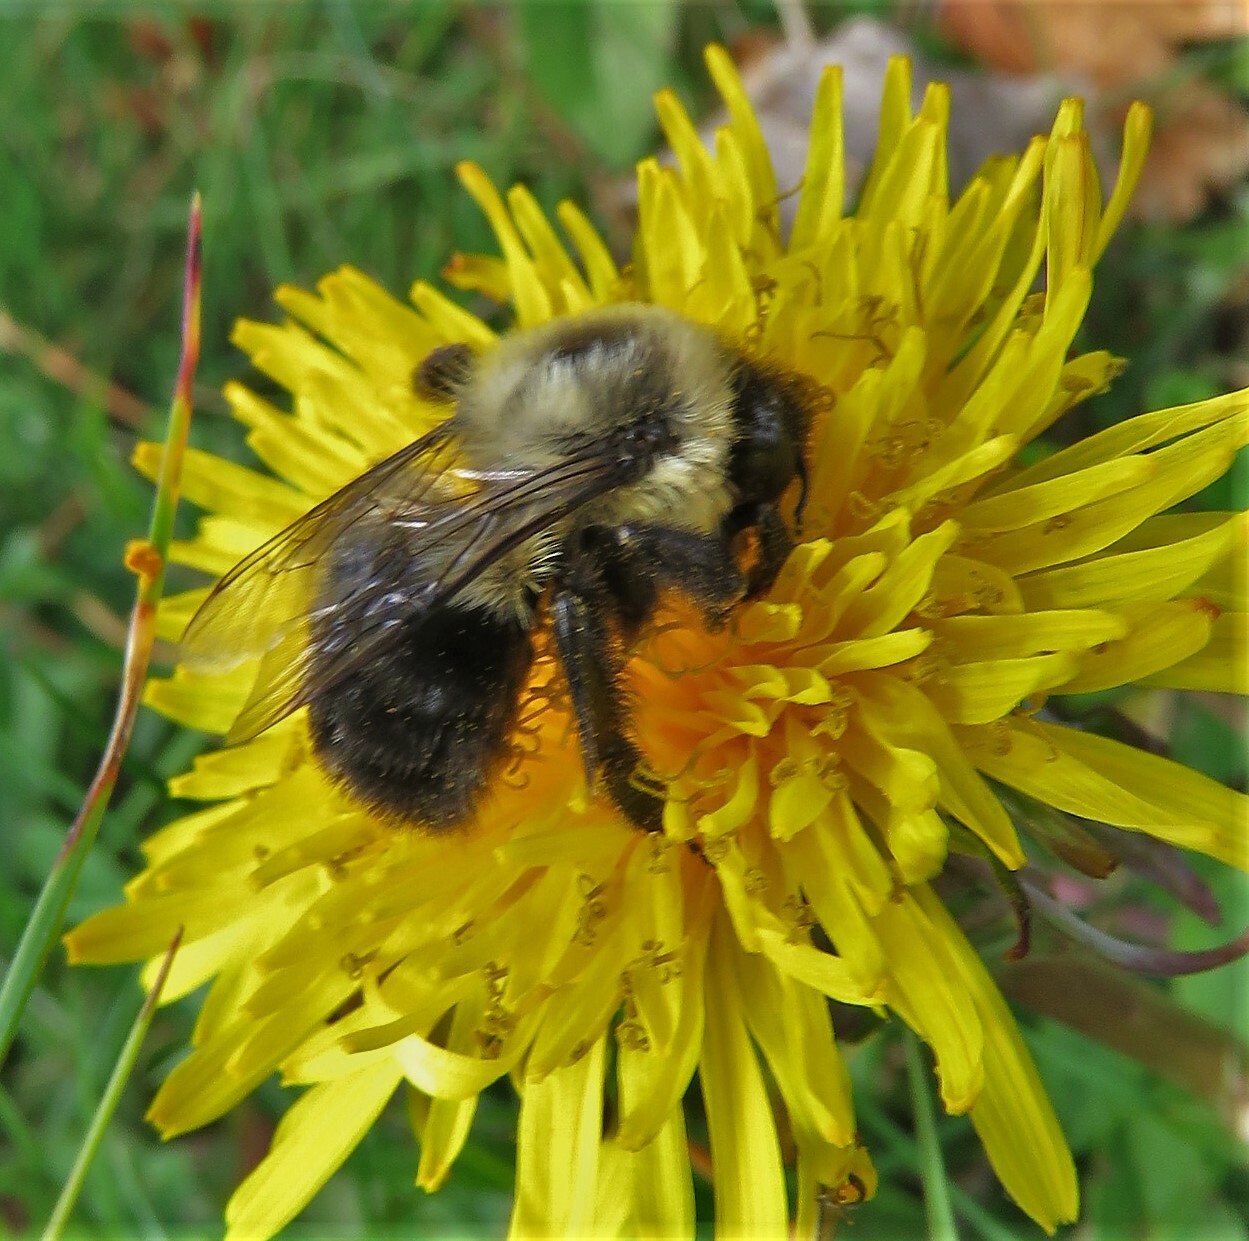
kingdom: Animalia
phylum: Arthropoda
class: Insecta
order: Hymenoptera
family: Apidae
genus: Bombus
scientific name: Bombus impatiens
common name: Common eastern bumble bee
